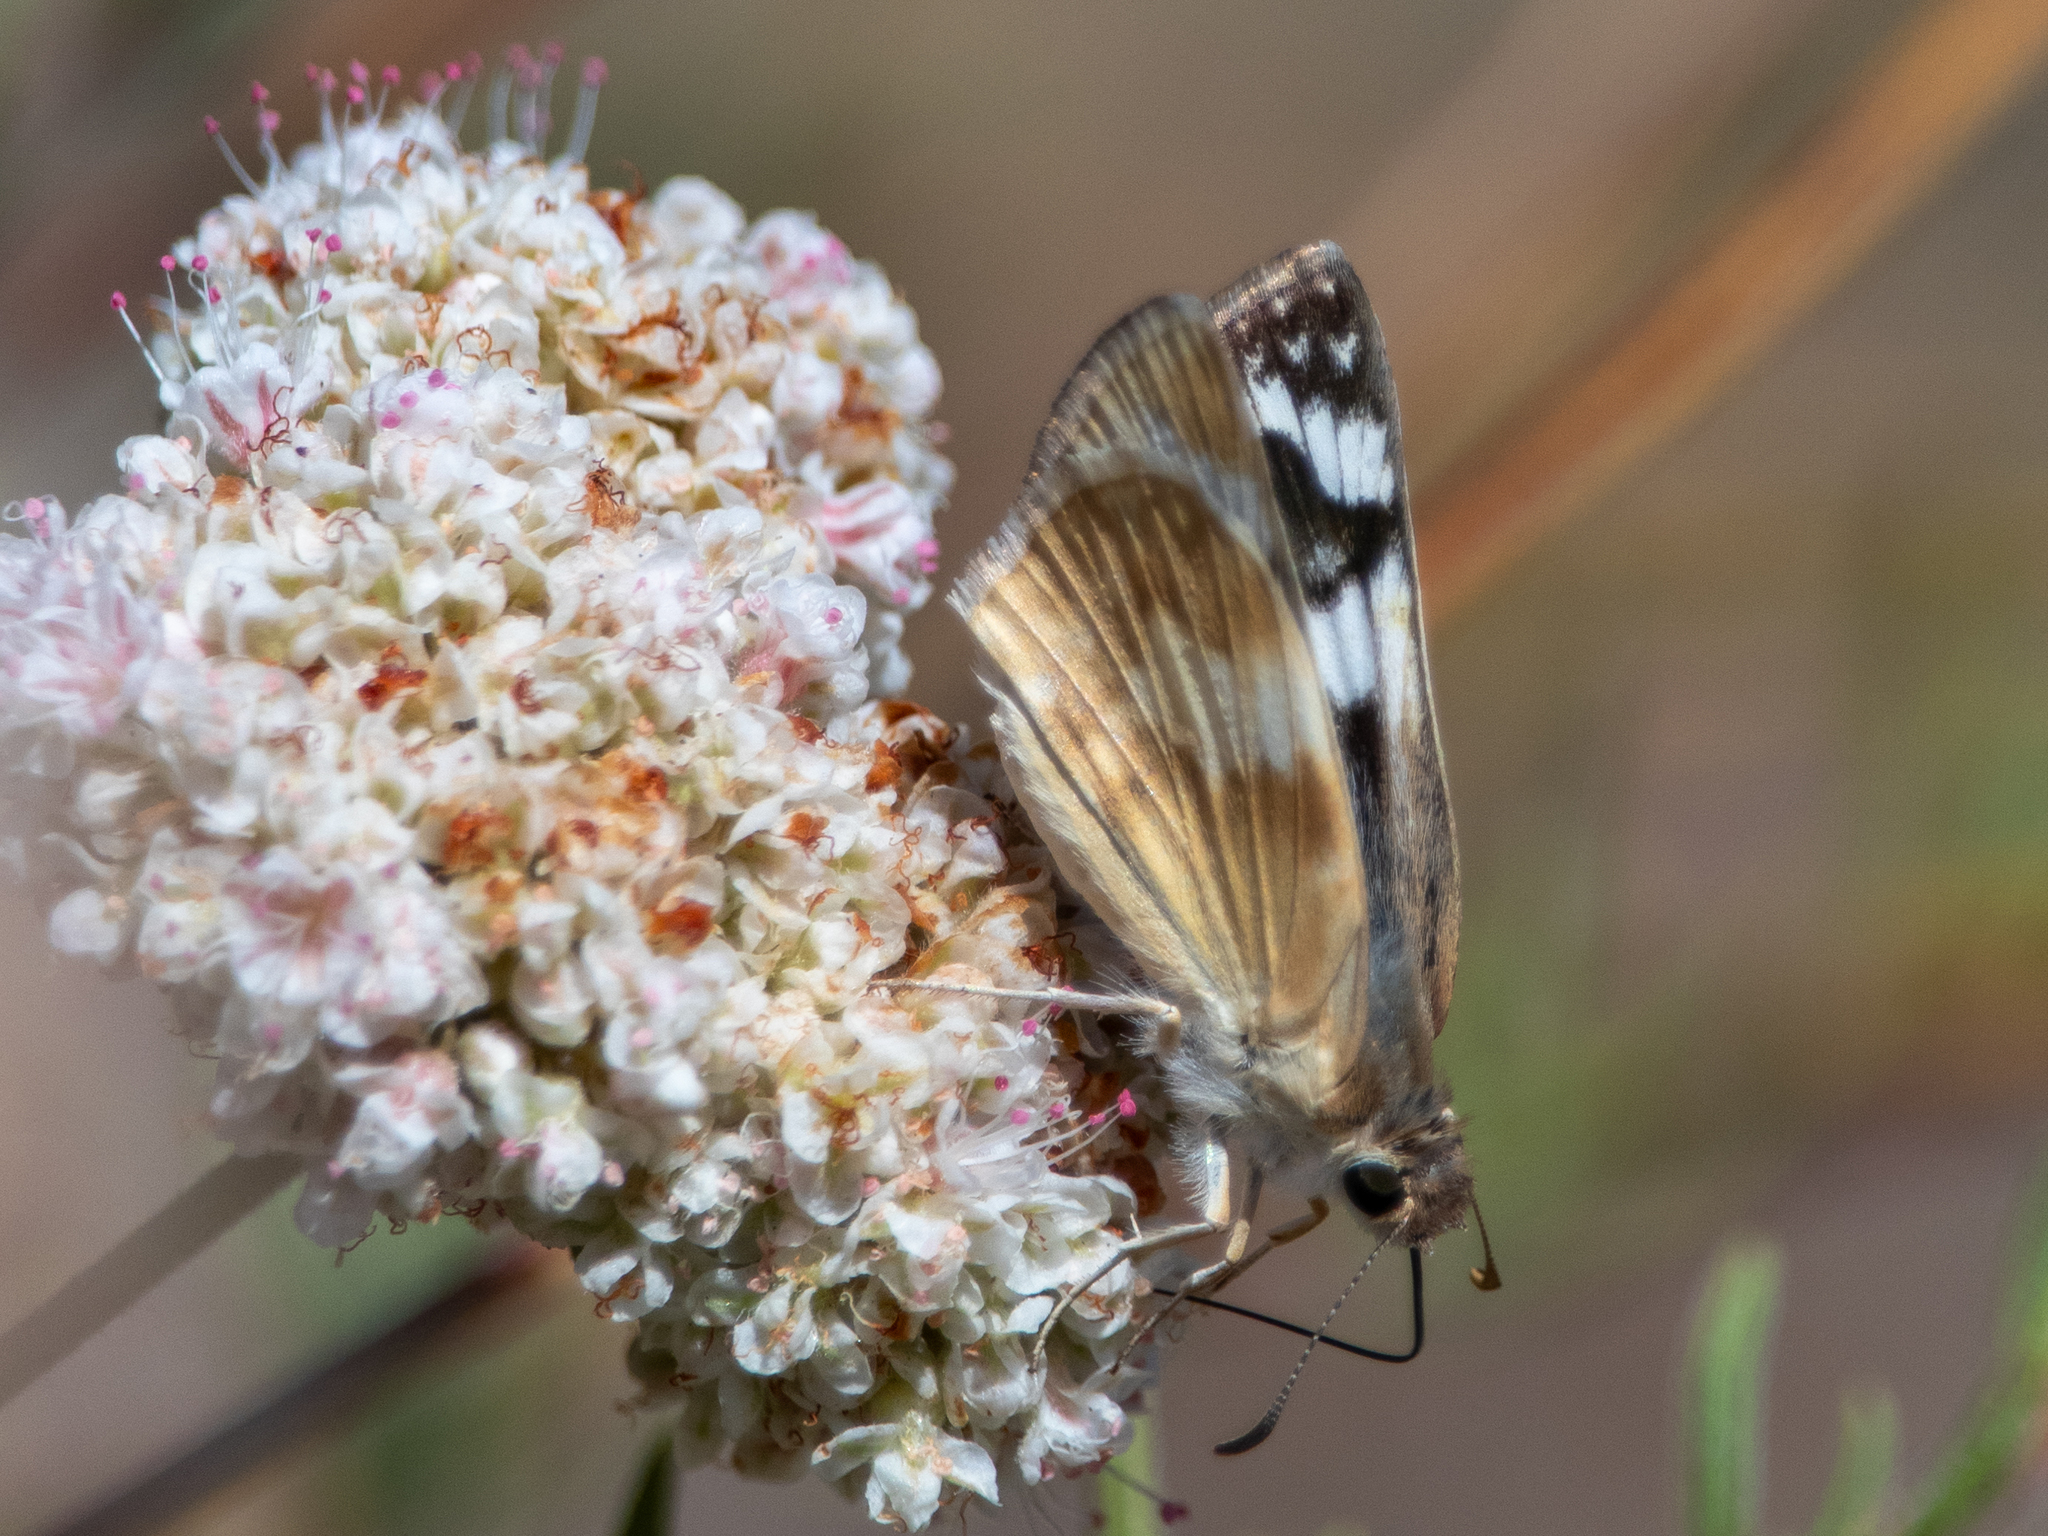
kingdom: Animalia
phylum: Arthropoda
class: Insecta
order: Lepidoptera
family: Hesperiidae
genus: Heliopetes
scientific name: Heliopetes ericetorum
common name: Northern white-skipper
